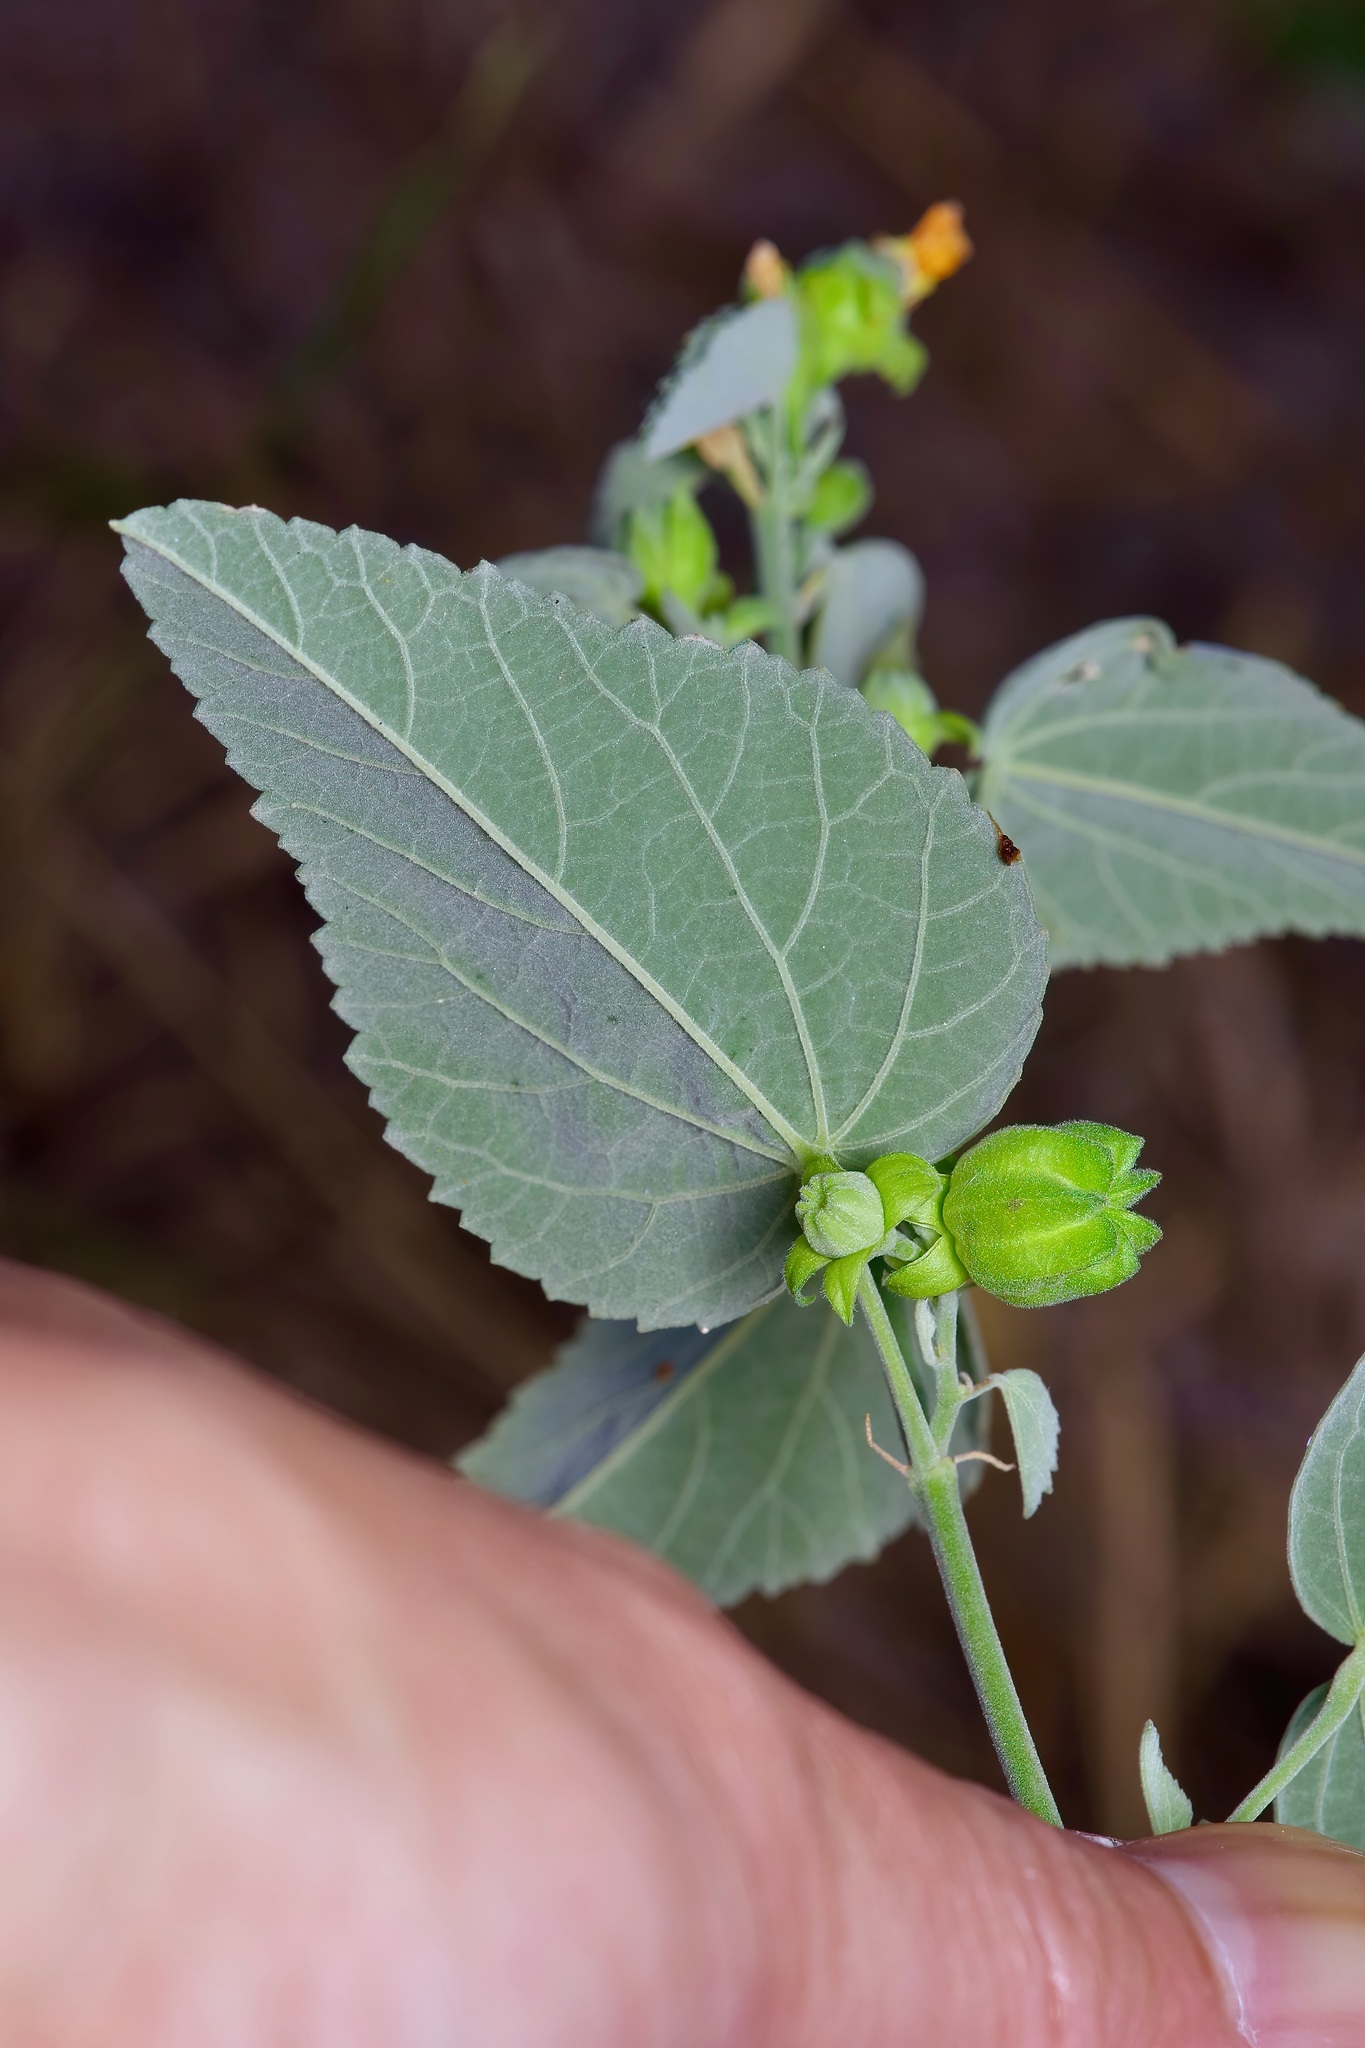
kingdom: Plantae
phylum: Tracheophyta
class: Magnoliopsida
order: Malvales
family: Malvaceae
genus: Abutilon
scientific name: Abutilon fruticosum
